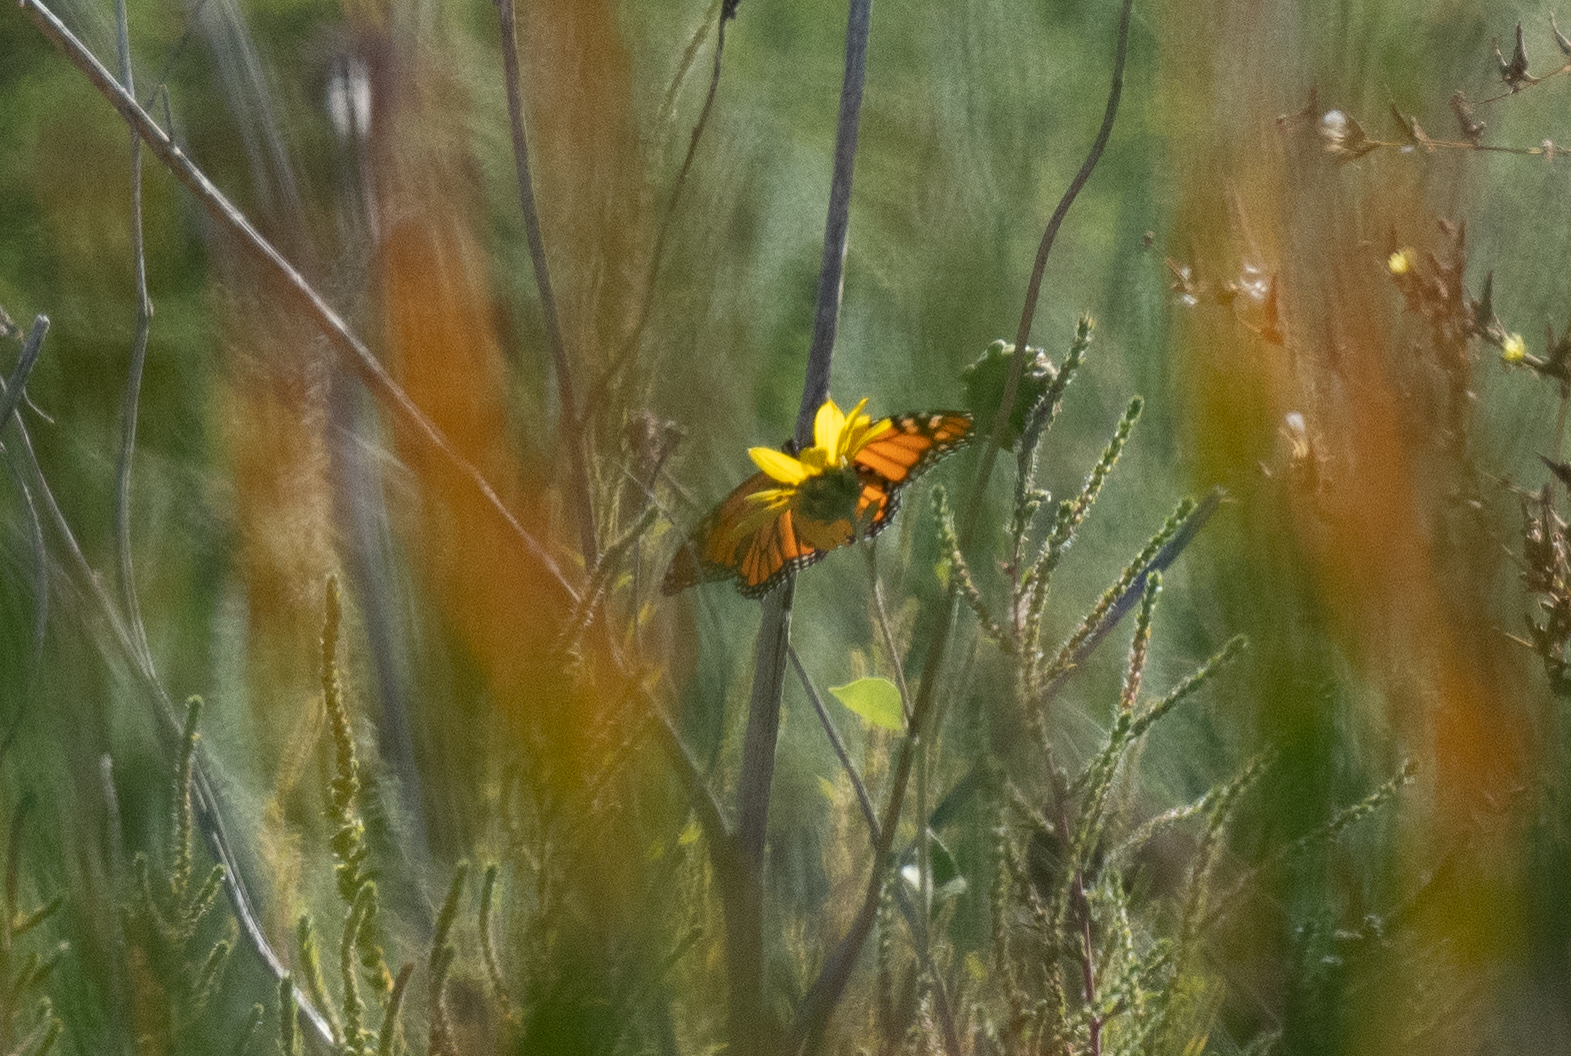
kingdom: Animalia
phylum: Arthropoda
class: Insecta
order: Lepidoptera
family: Nymphalidae
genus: Danaus
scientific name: Danaus plexippus
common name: Monarch
